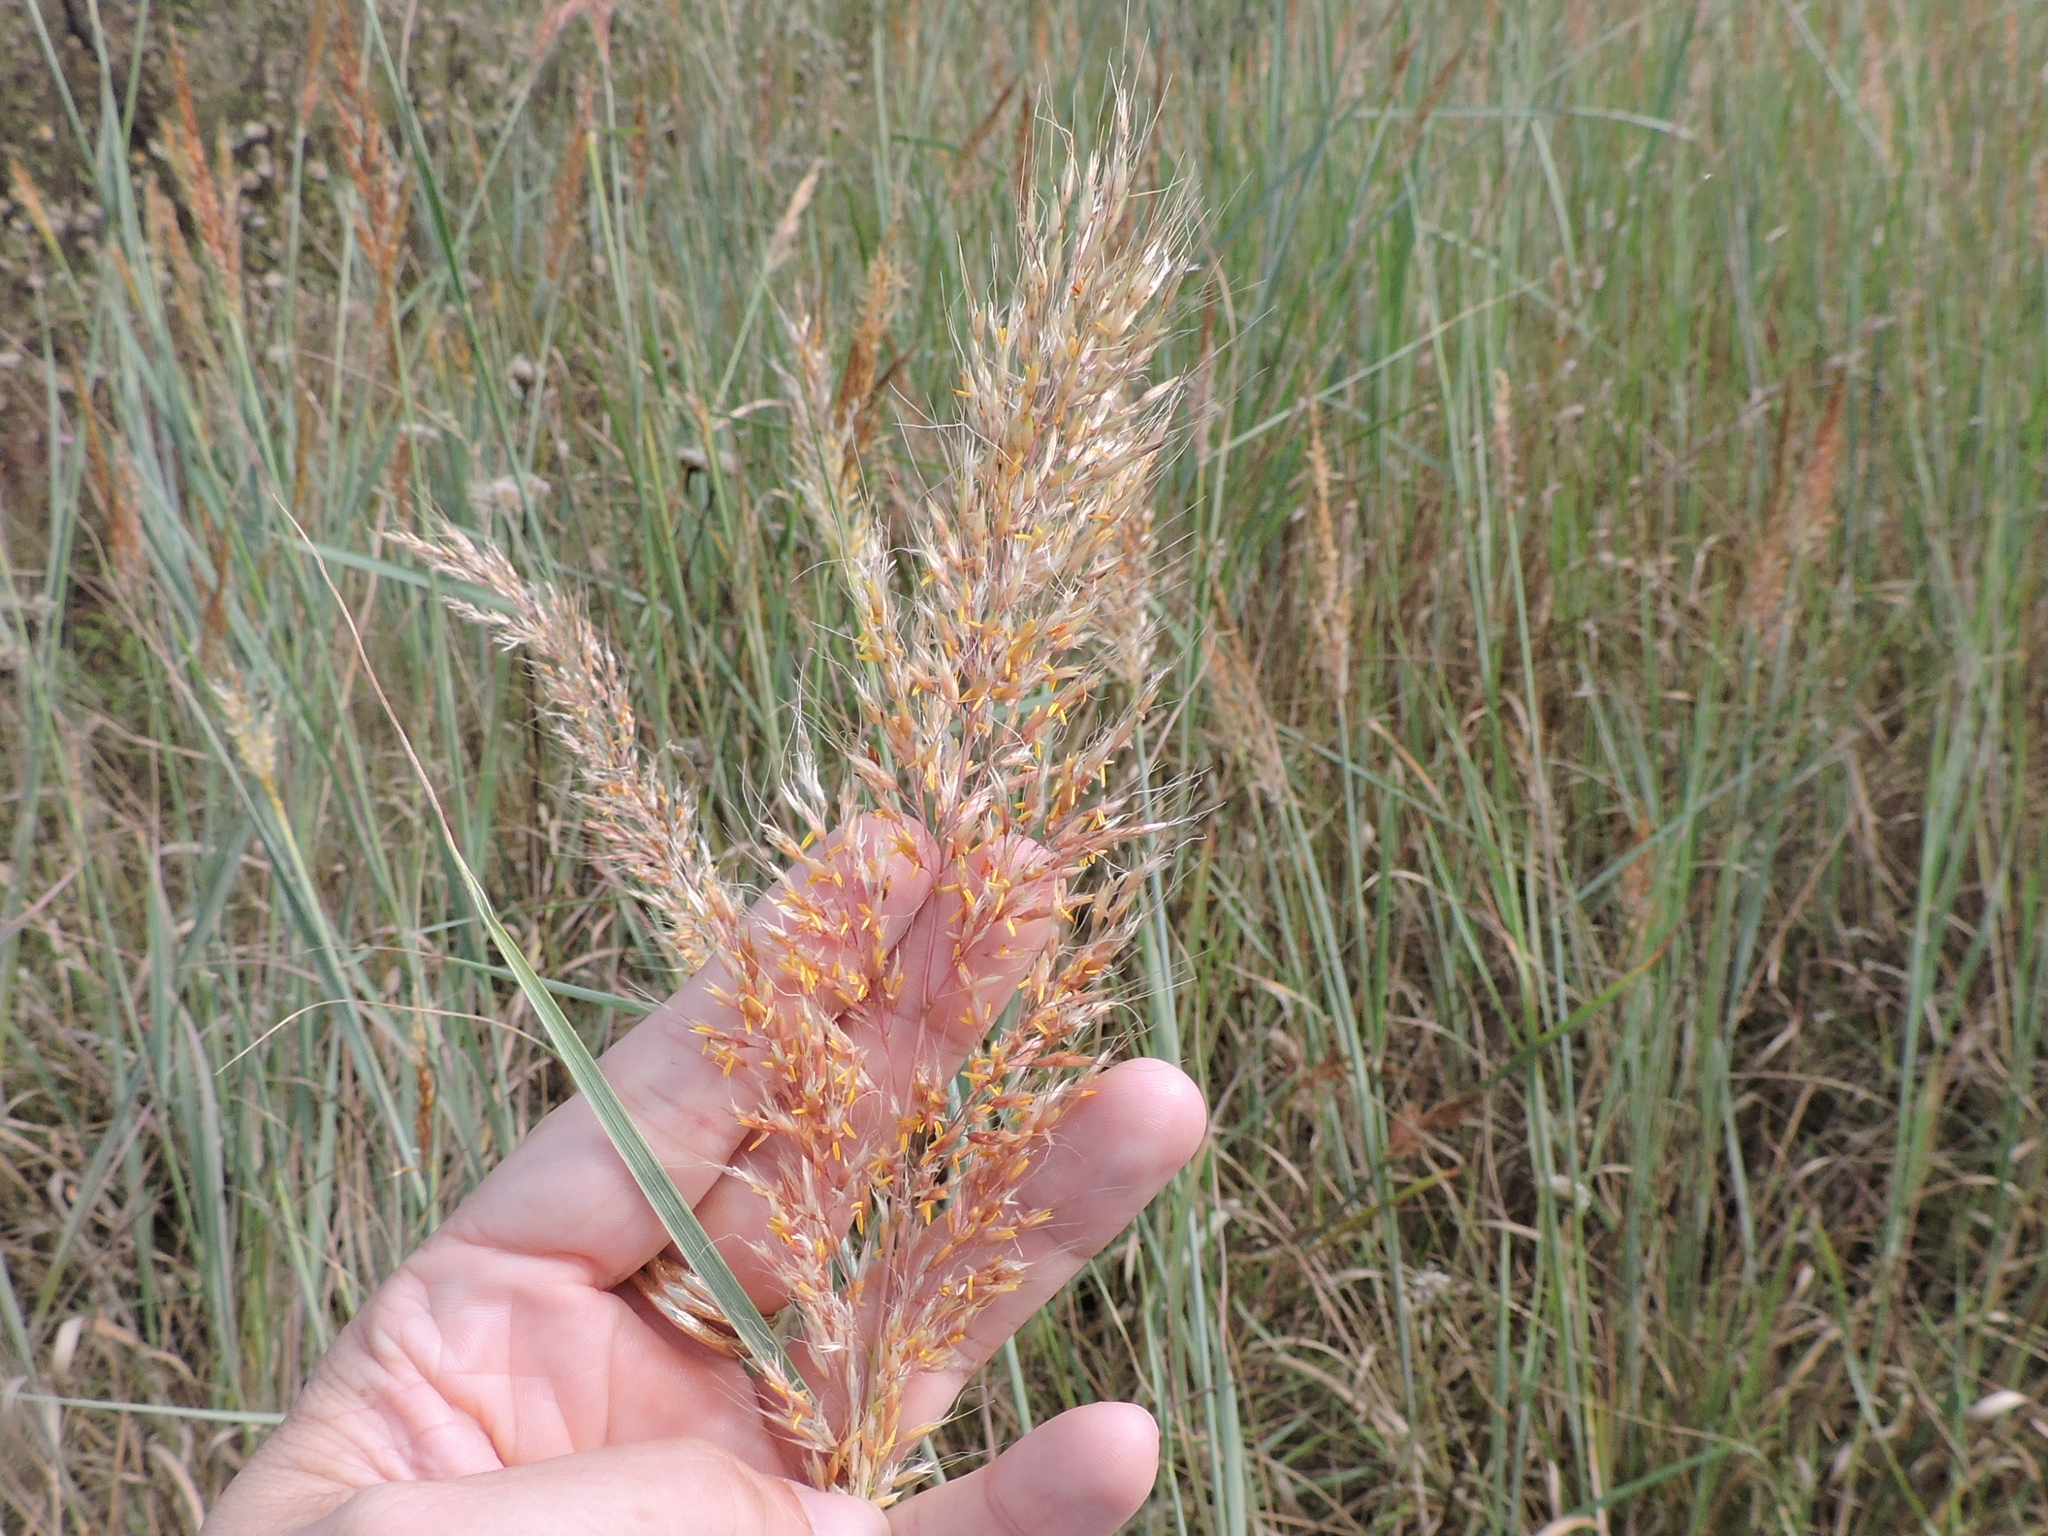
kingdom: Plantae
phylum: Tracheophyta
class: Liliopsida
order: Poales
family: Poaceae
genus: Sorghastrum
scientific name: Sorghastrum nutans
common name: Indian grass
